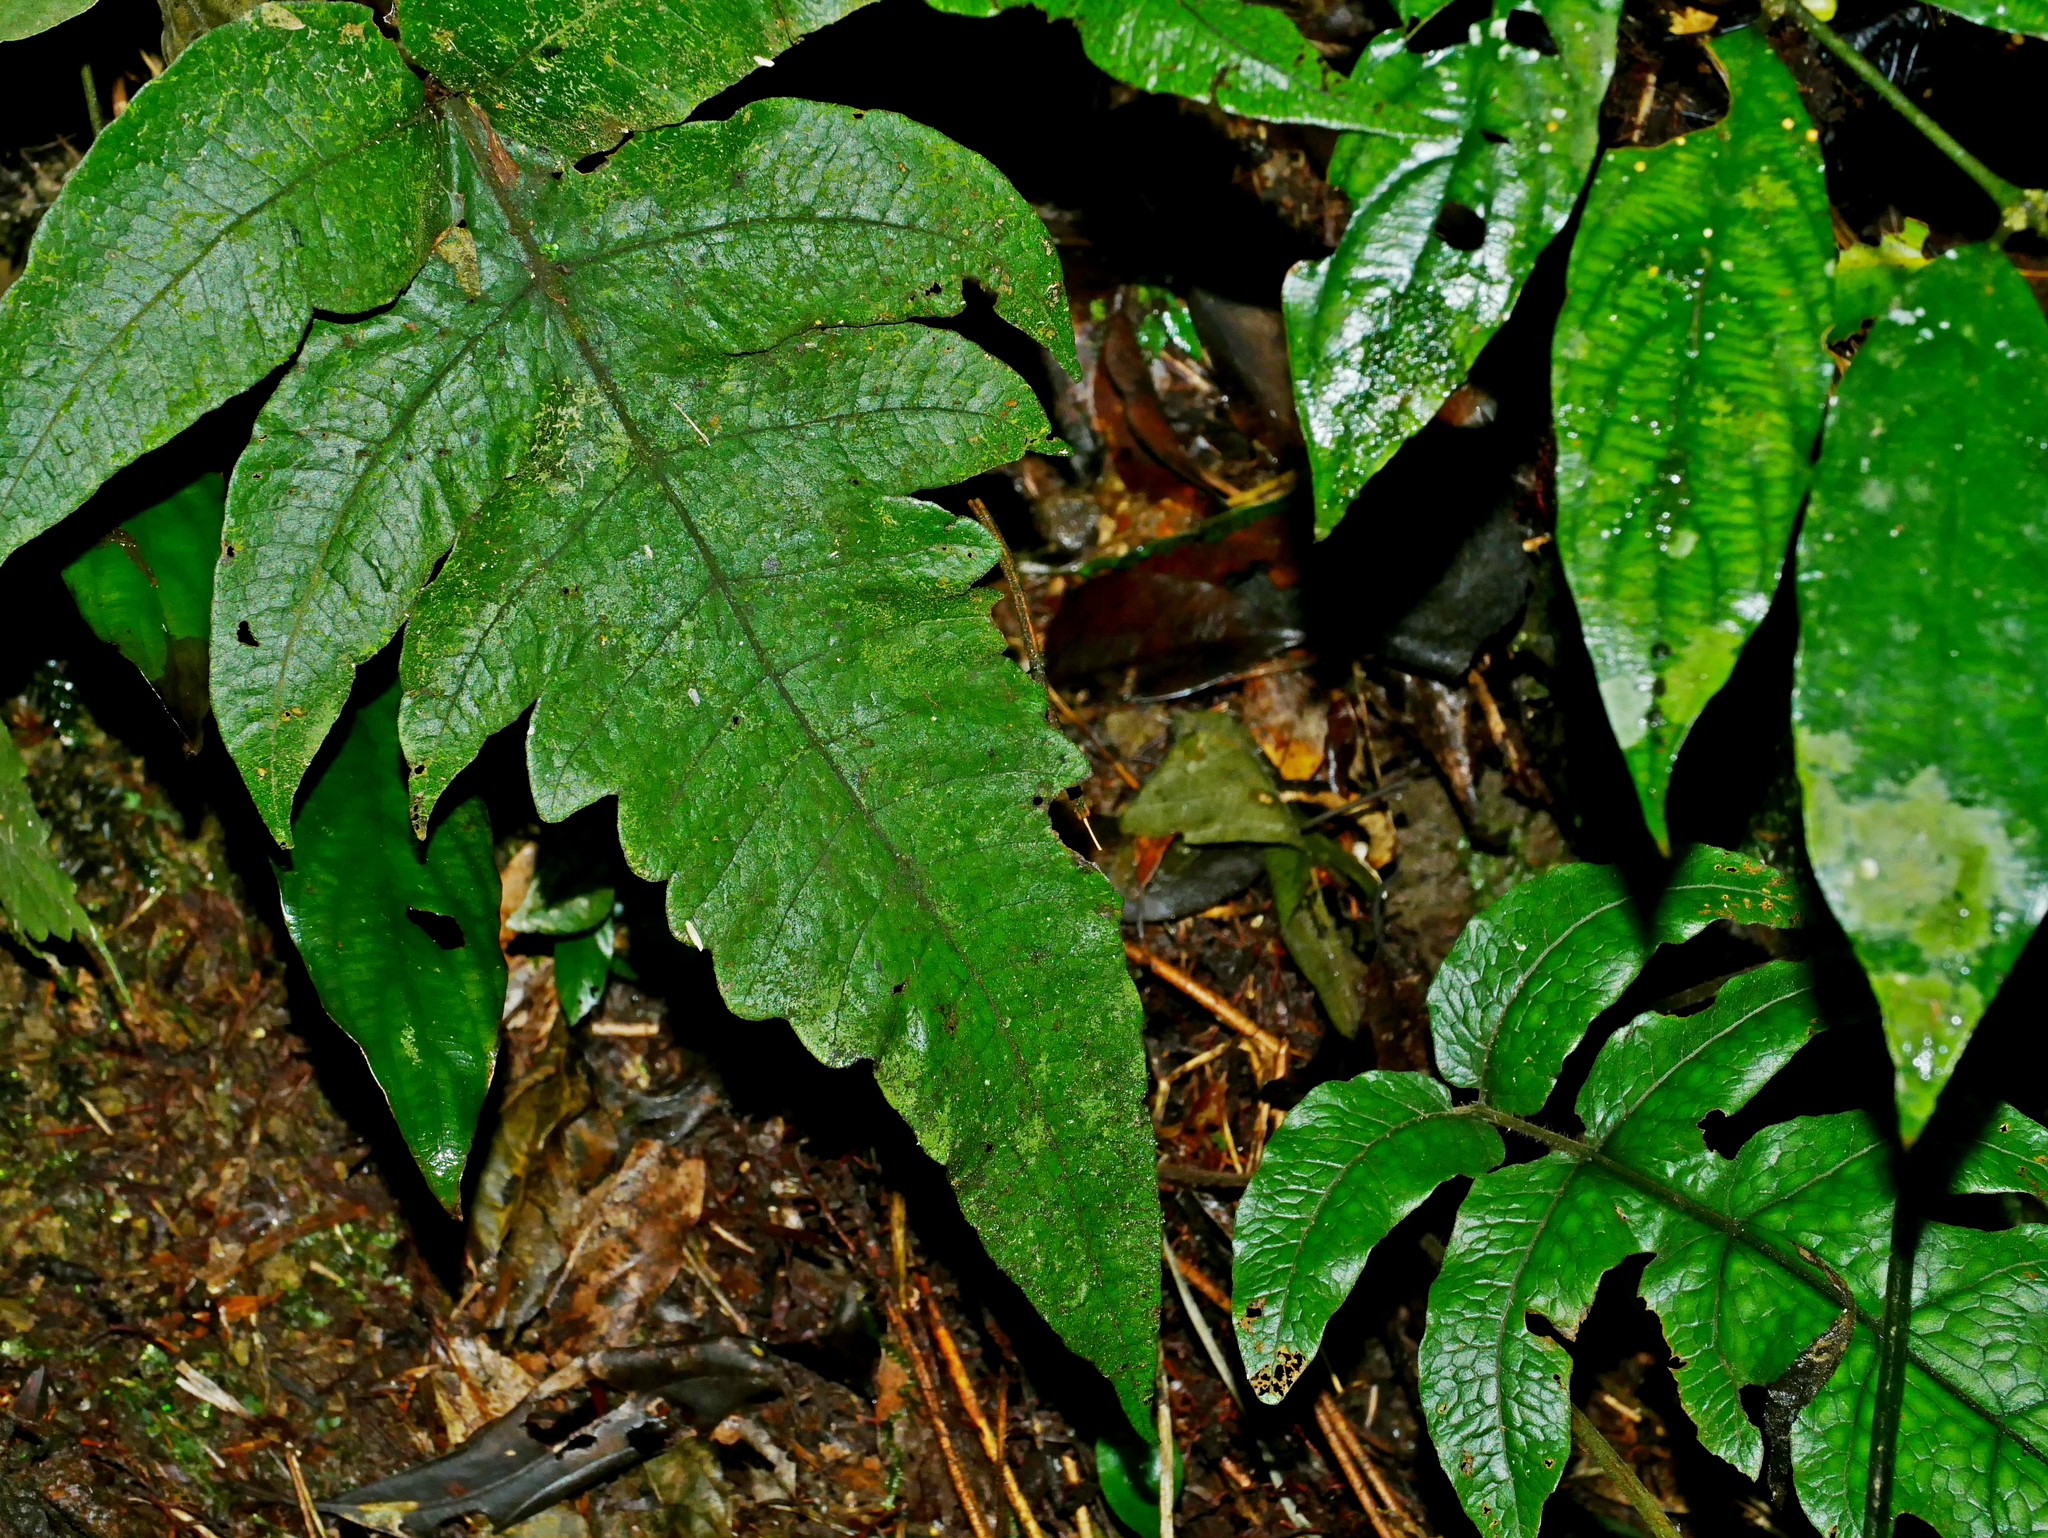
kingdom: Plantae
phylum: Tracheophyta
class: Polypodiopsida
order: Polypodiales
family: Thelypteridaceae
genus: Stegnogramma
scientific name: Stegnogramma wilfordii
